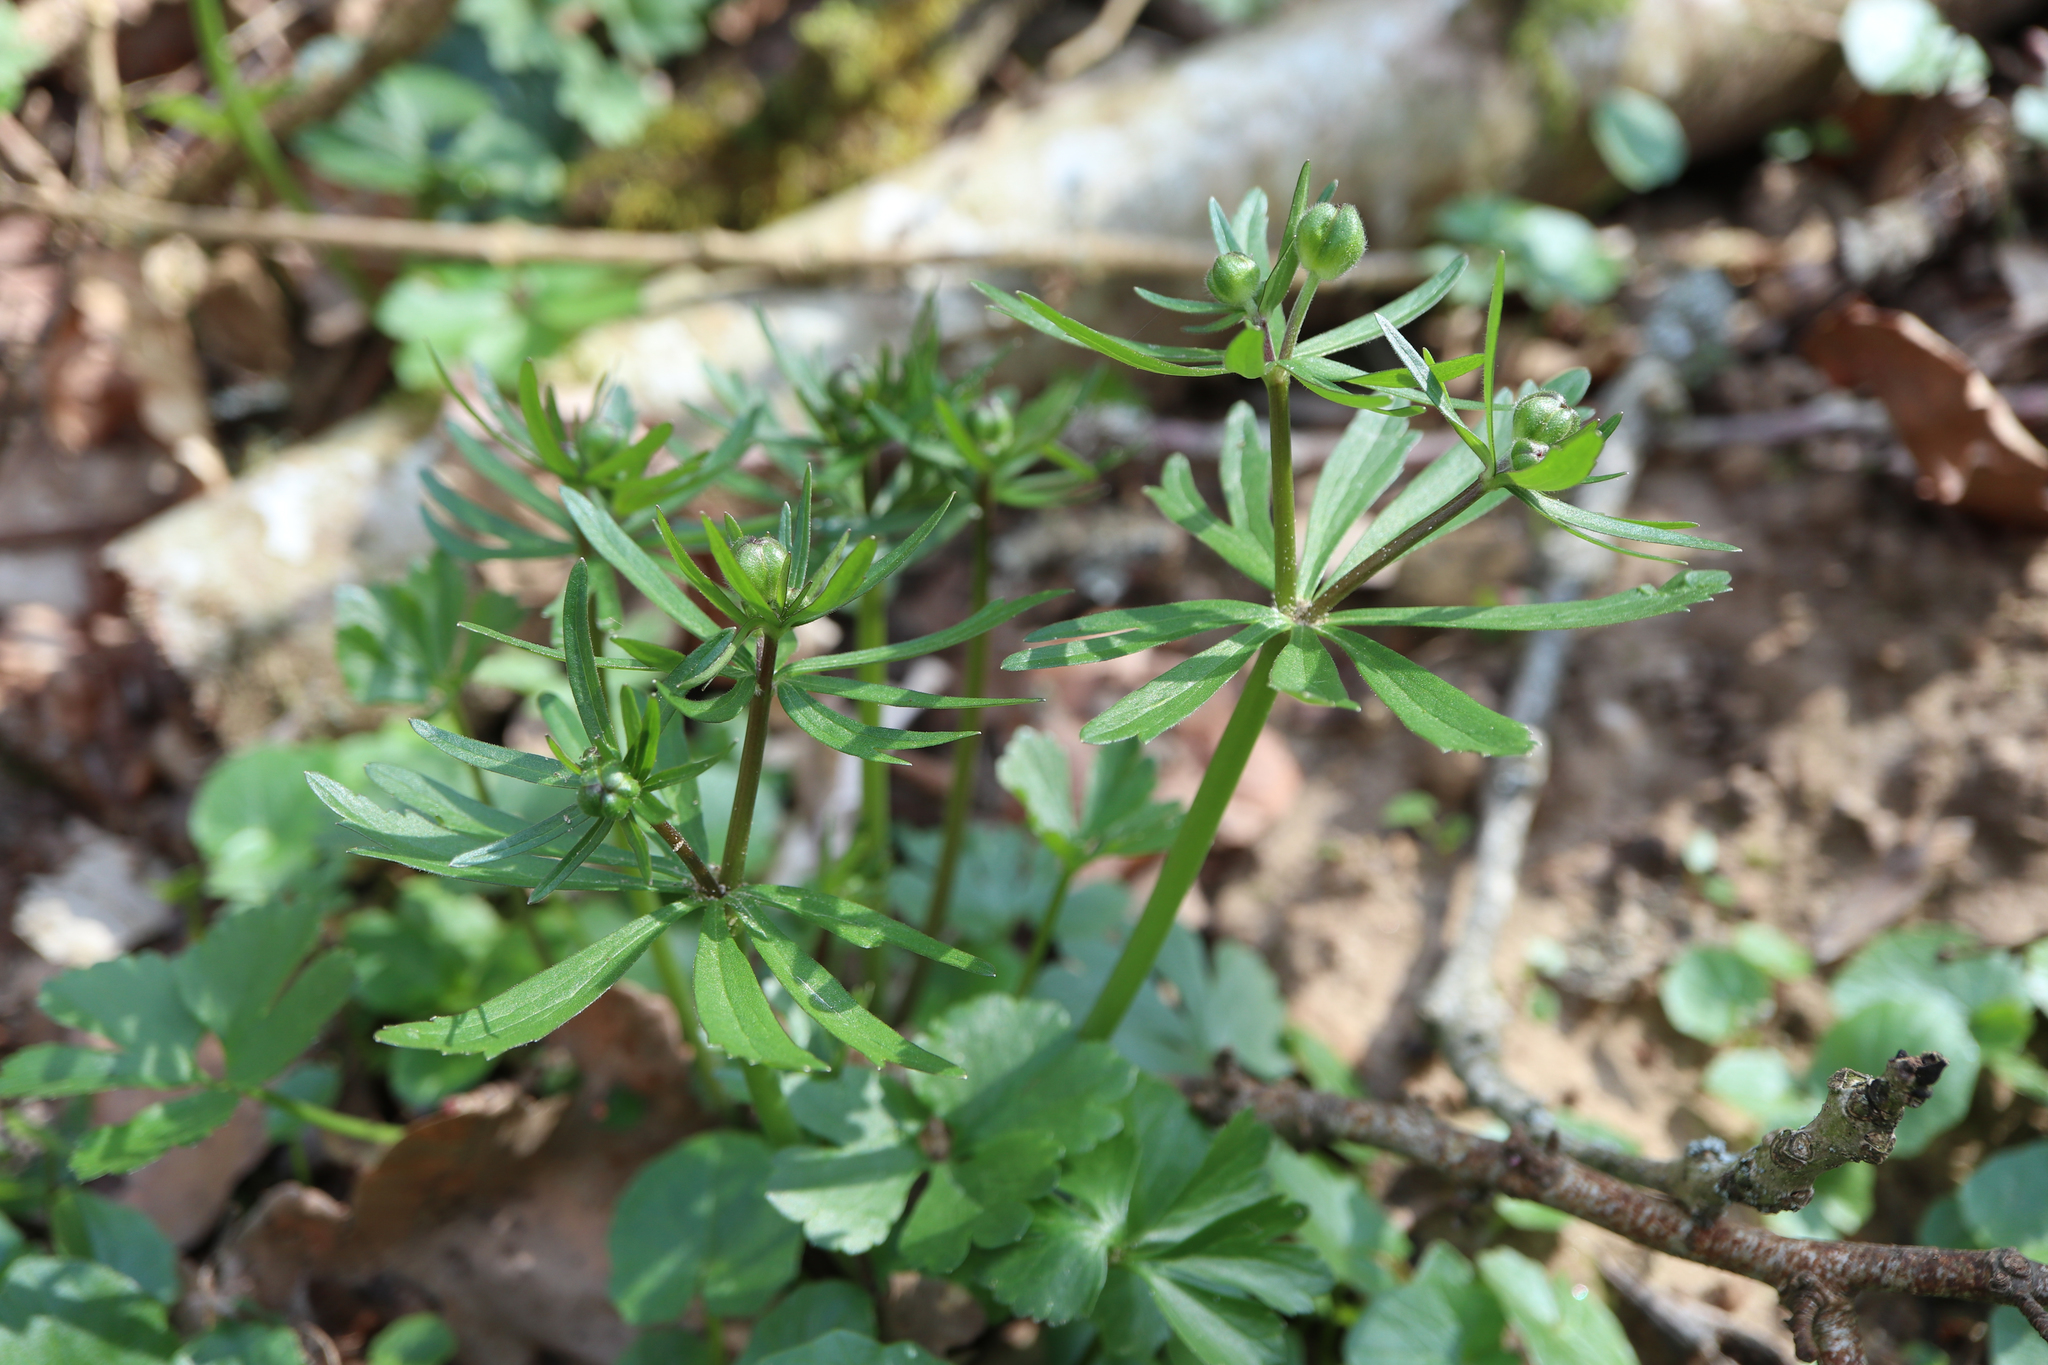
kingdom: Plantae
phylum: Tracheophyta
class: Magnoliopsida
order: Ranunculales
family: Ranunculaceae
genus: Ranunculus
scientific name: Ranunculus auricomus
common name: Goldilocks buttercup
